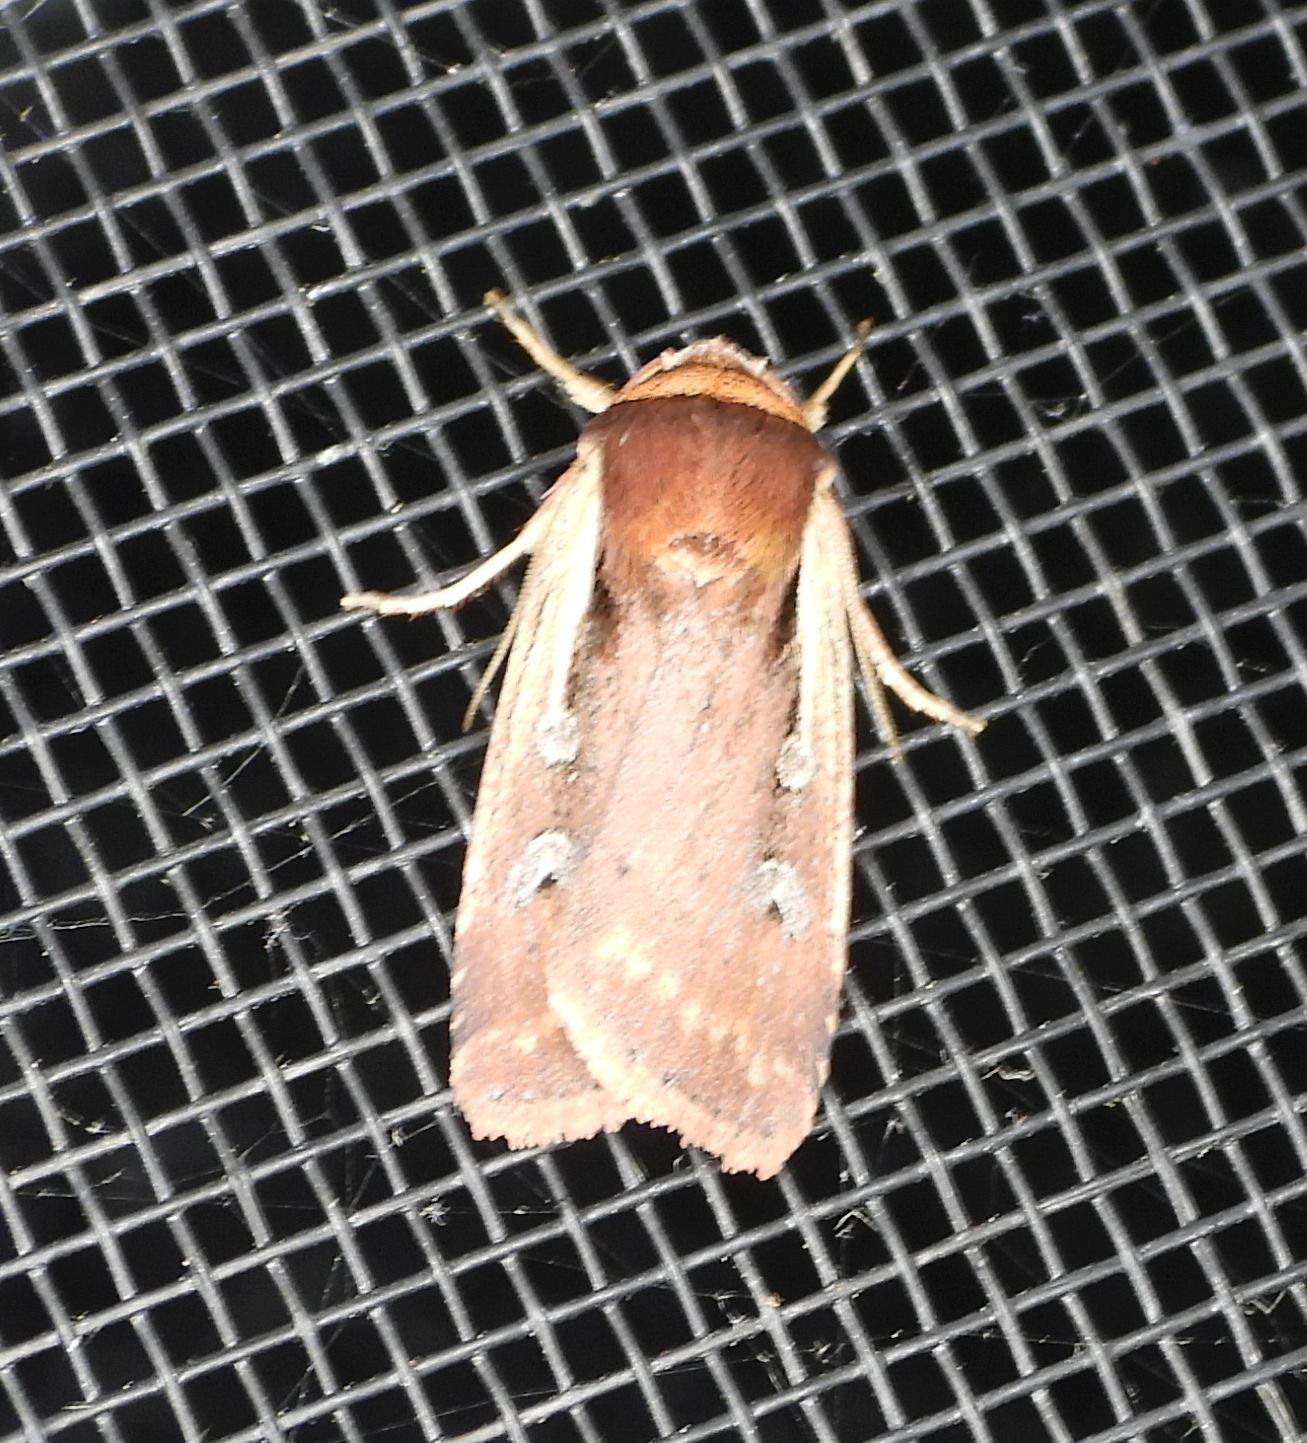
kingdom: Animalia
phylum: Arthropoda
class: Insecta
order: Lepidoptera
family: Noctuidae
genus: Ochropleura
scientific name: Ochropleura implecta
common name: Flame-shouldered dart
